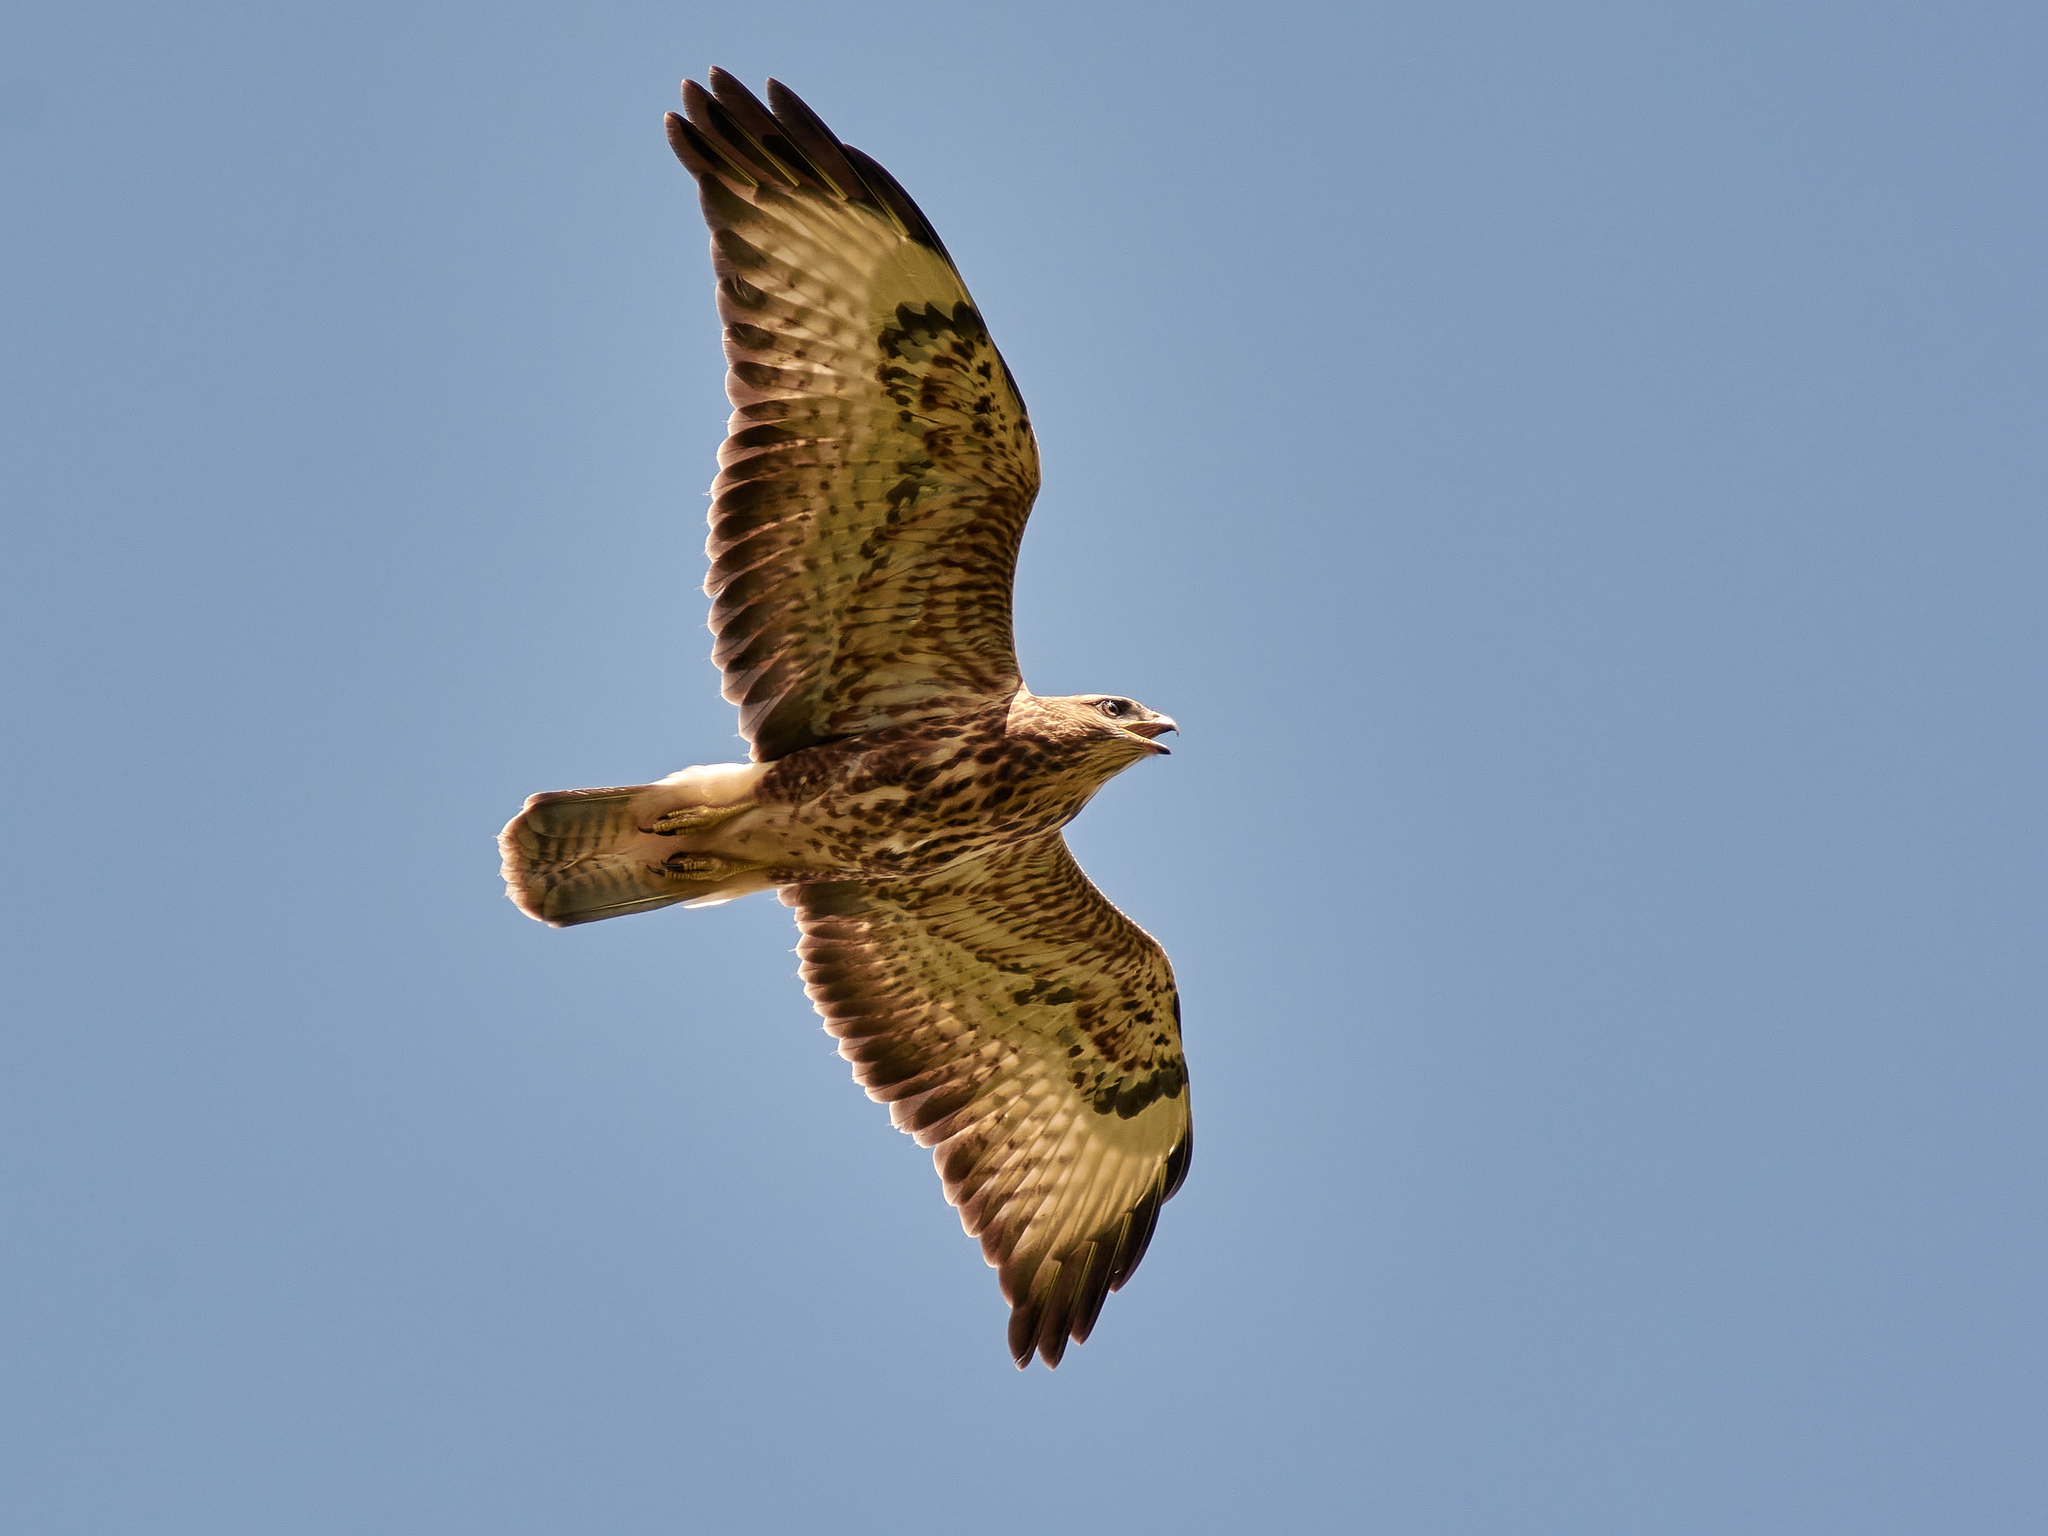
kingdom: Animalia
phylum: Chordata
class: Aves
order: Accipitriformes
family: Accipitridae
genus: Buteo
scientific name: Buteo buteo
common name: Common buzzard
